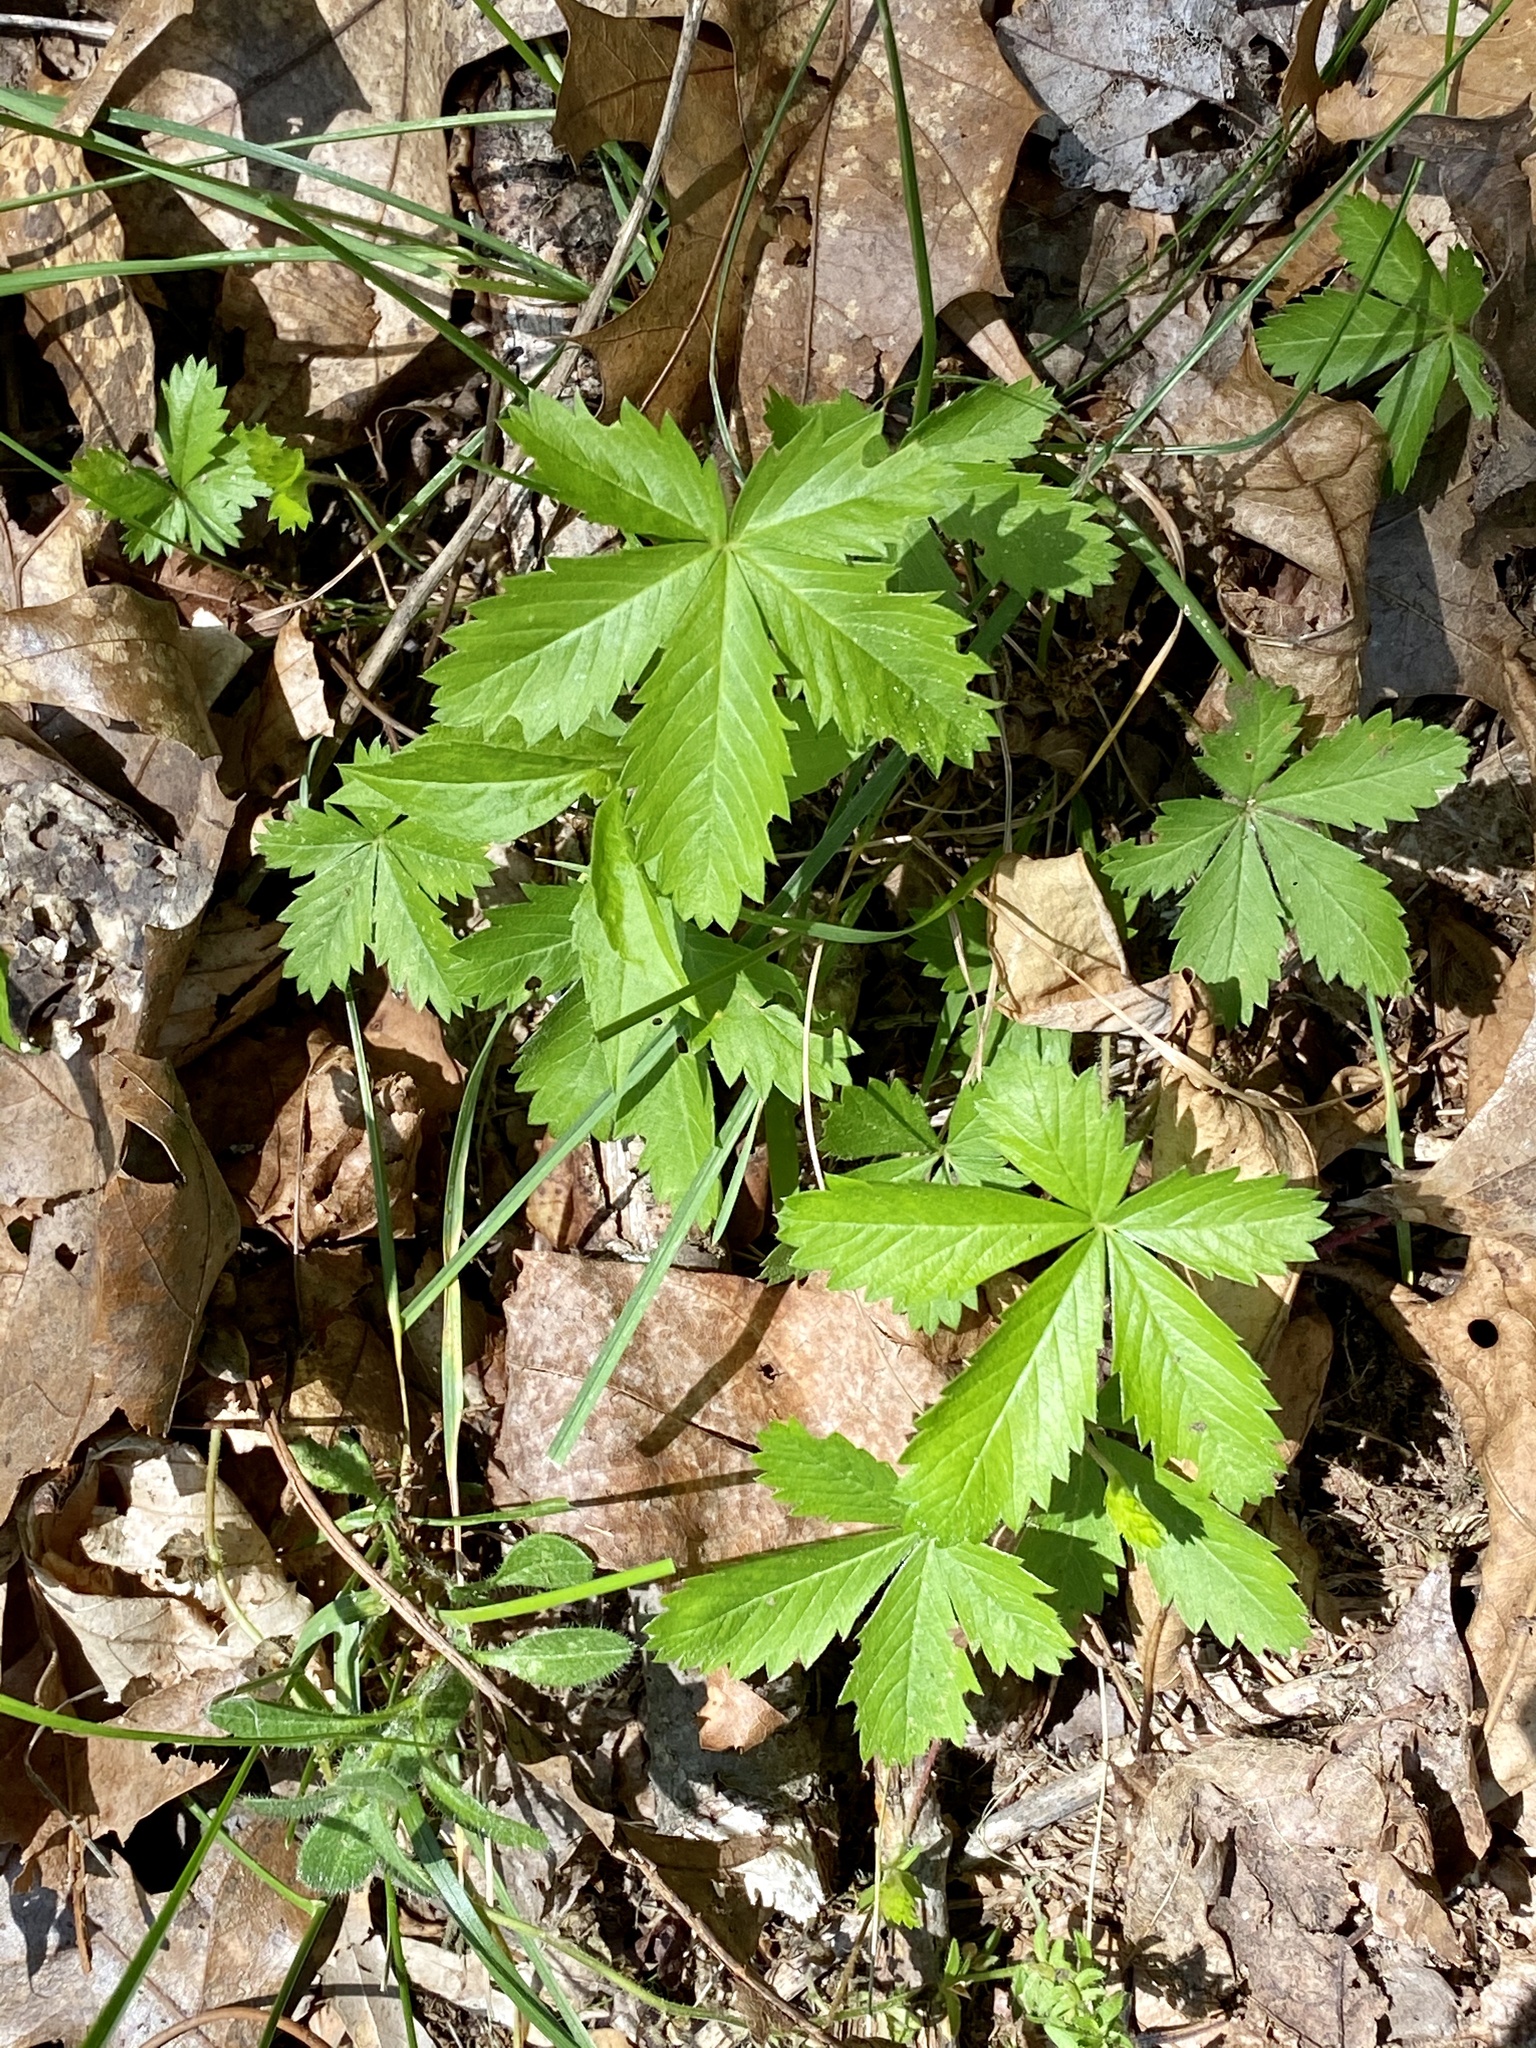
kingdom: Plantae
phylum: Tracheophyta
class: Magnoliopsida
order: Rosales
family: Rosaceae
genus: Potentilla
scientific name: Potentilla simplex
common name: Old field cinquefoil
